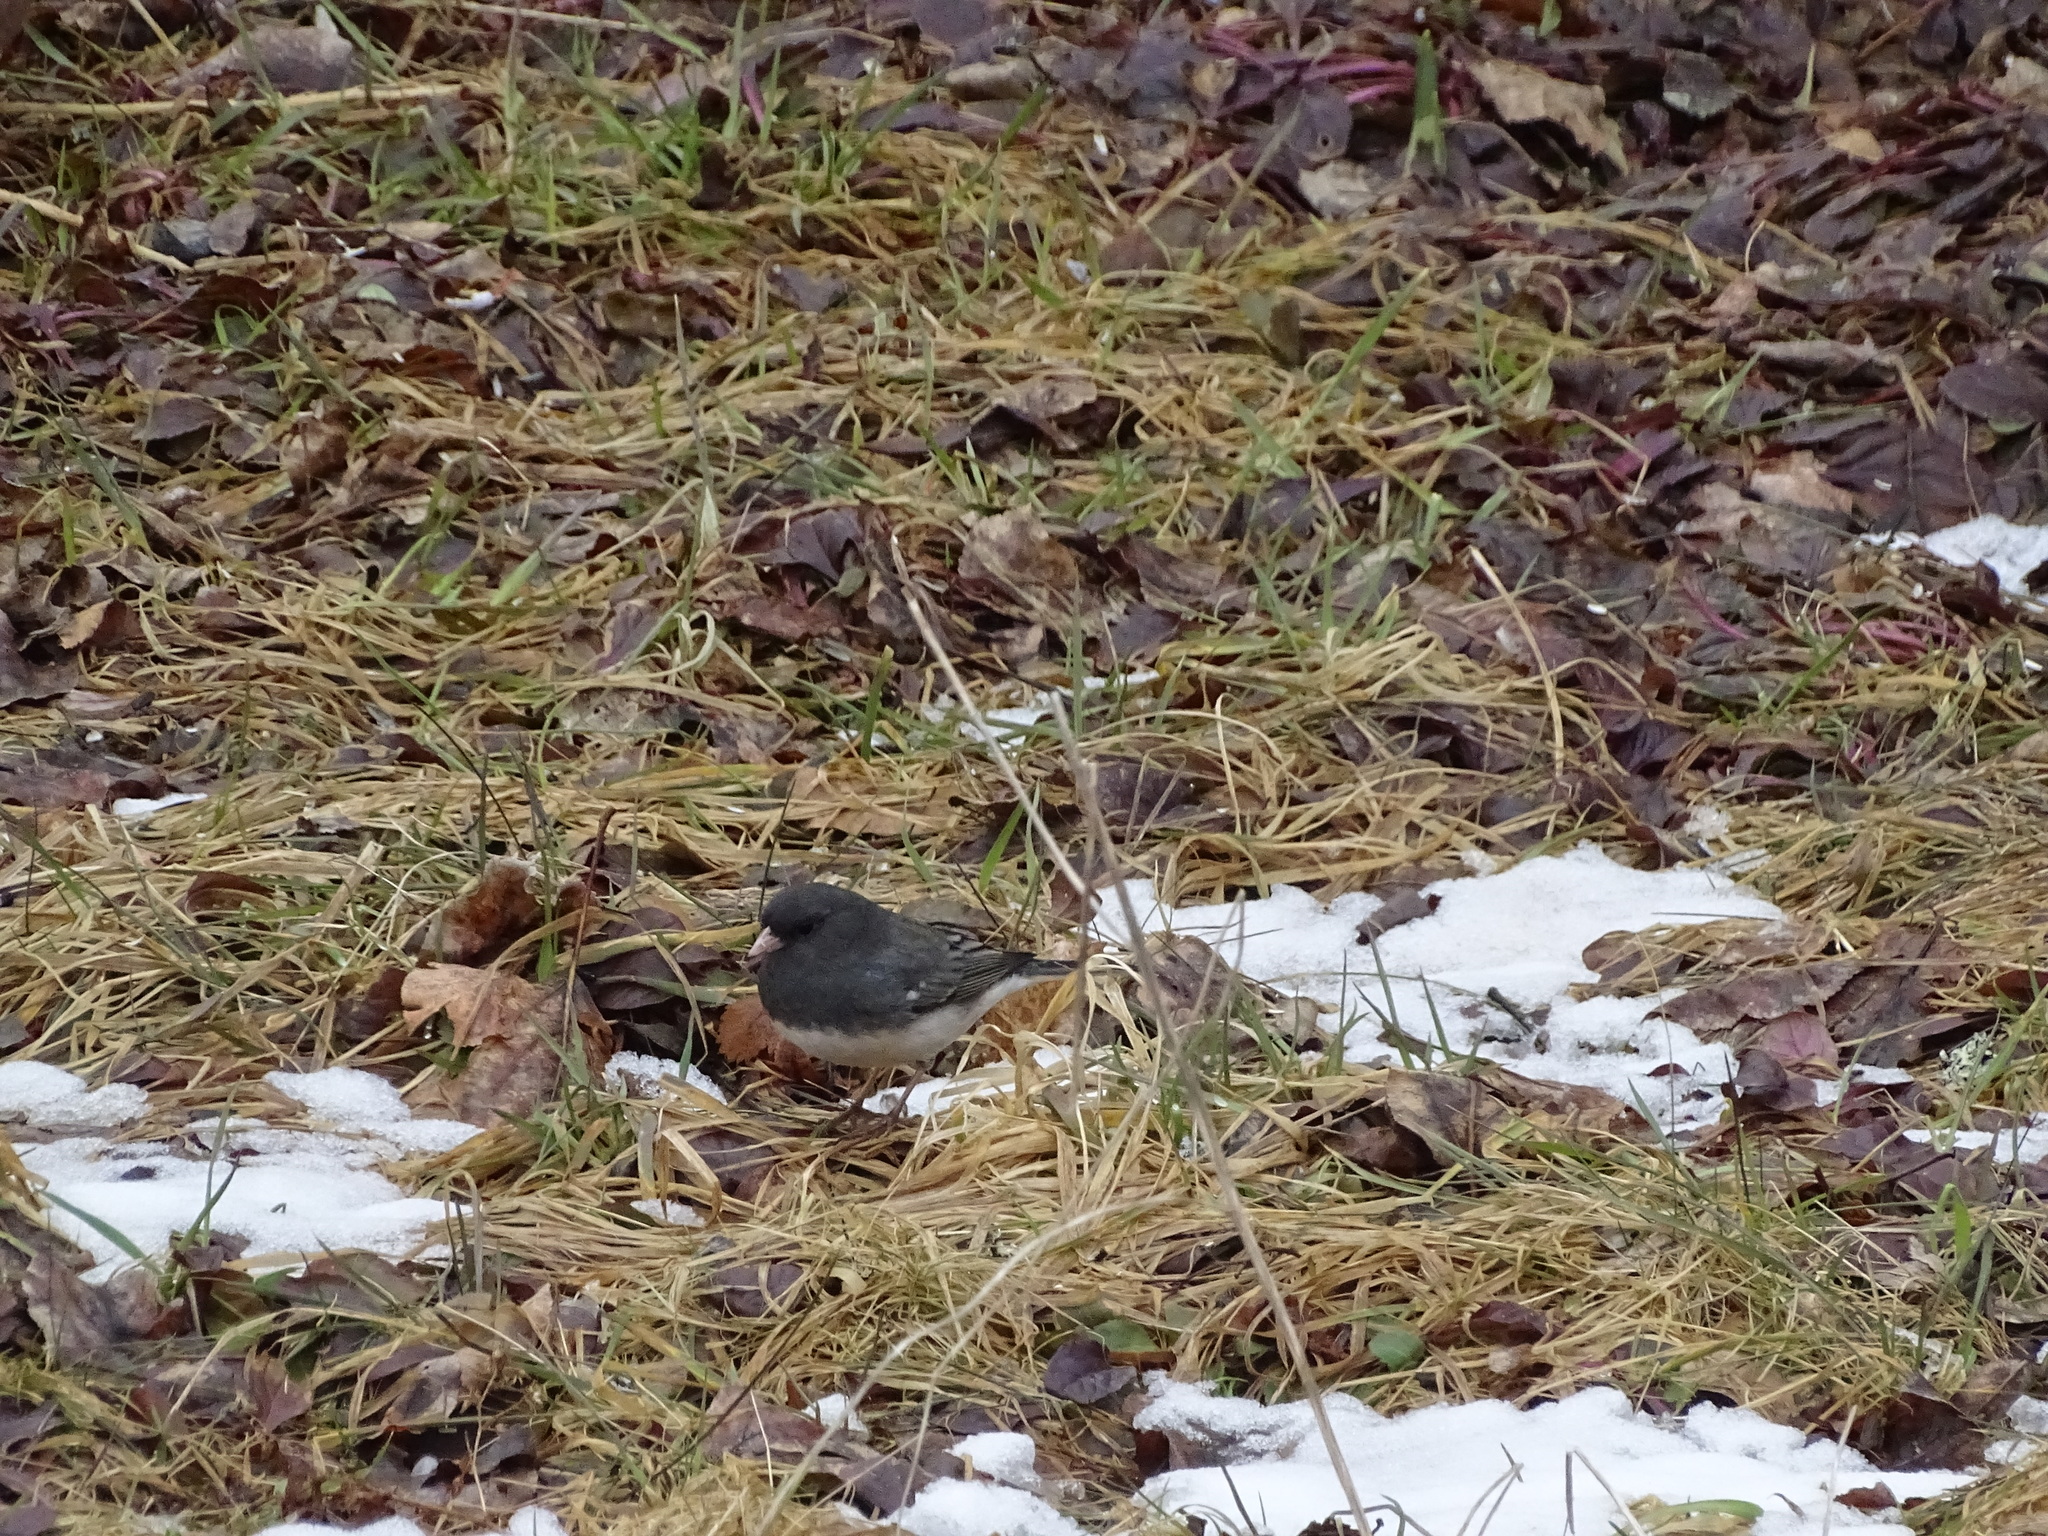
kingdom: Animalia
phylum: Chordata
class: Aves
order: Passeriformes
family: Passerellidae
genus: Junco
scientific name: Junco hyemalis
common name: Dark-eyed junco
